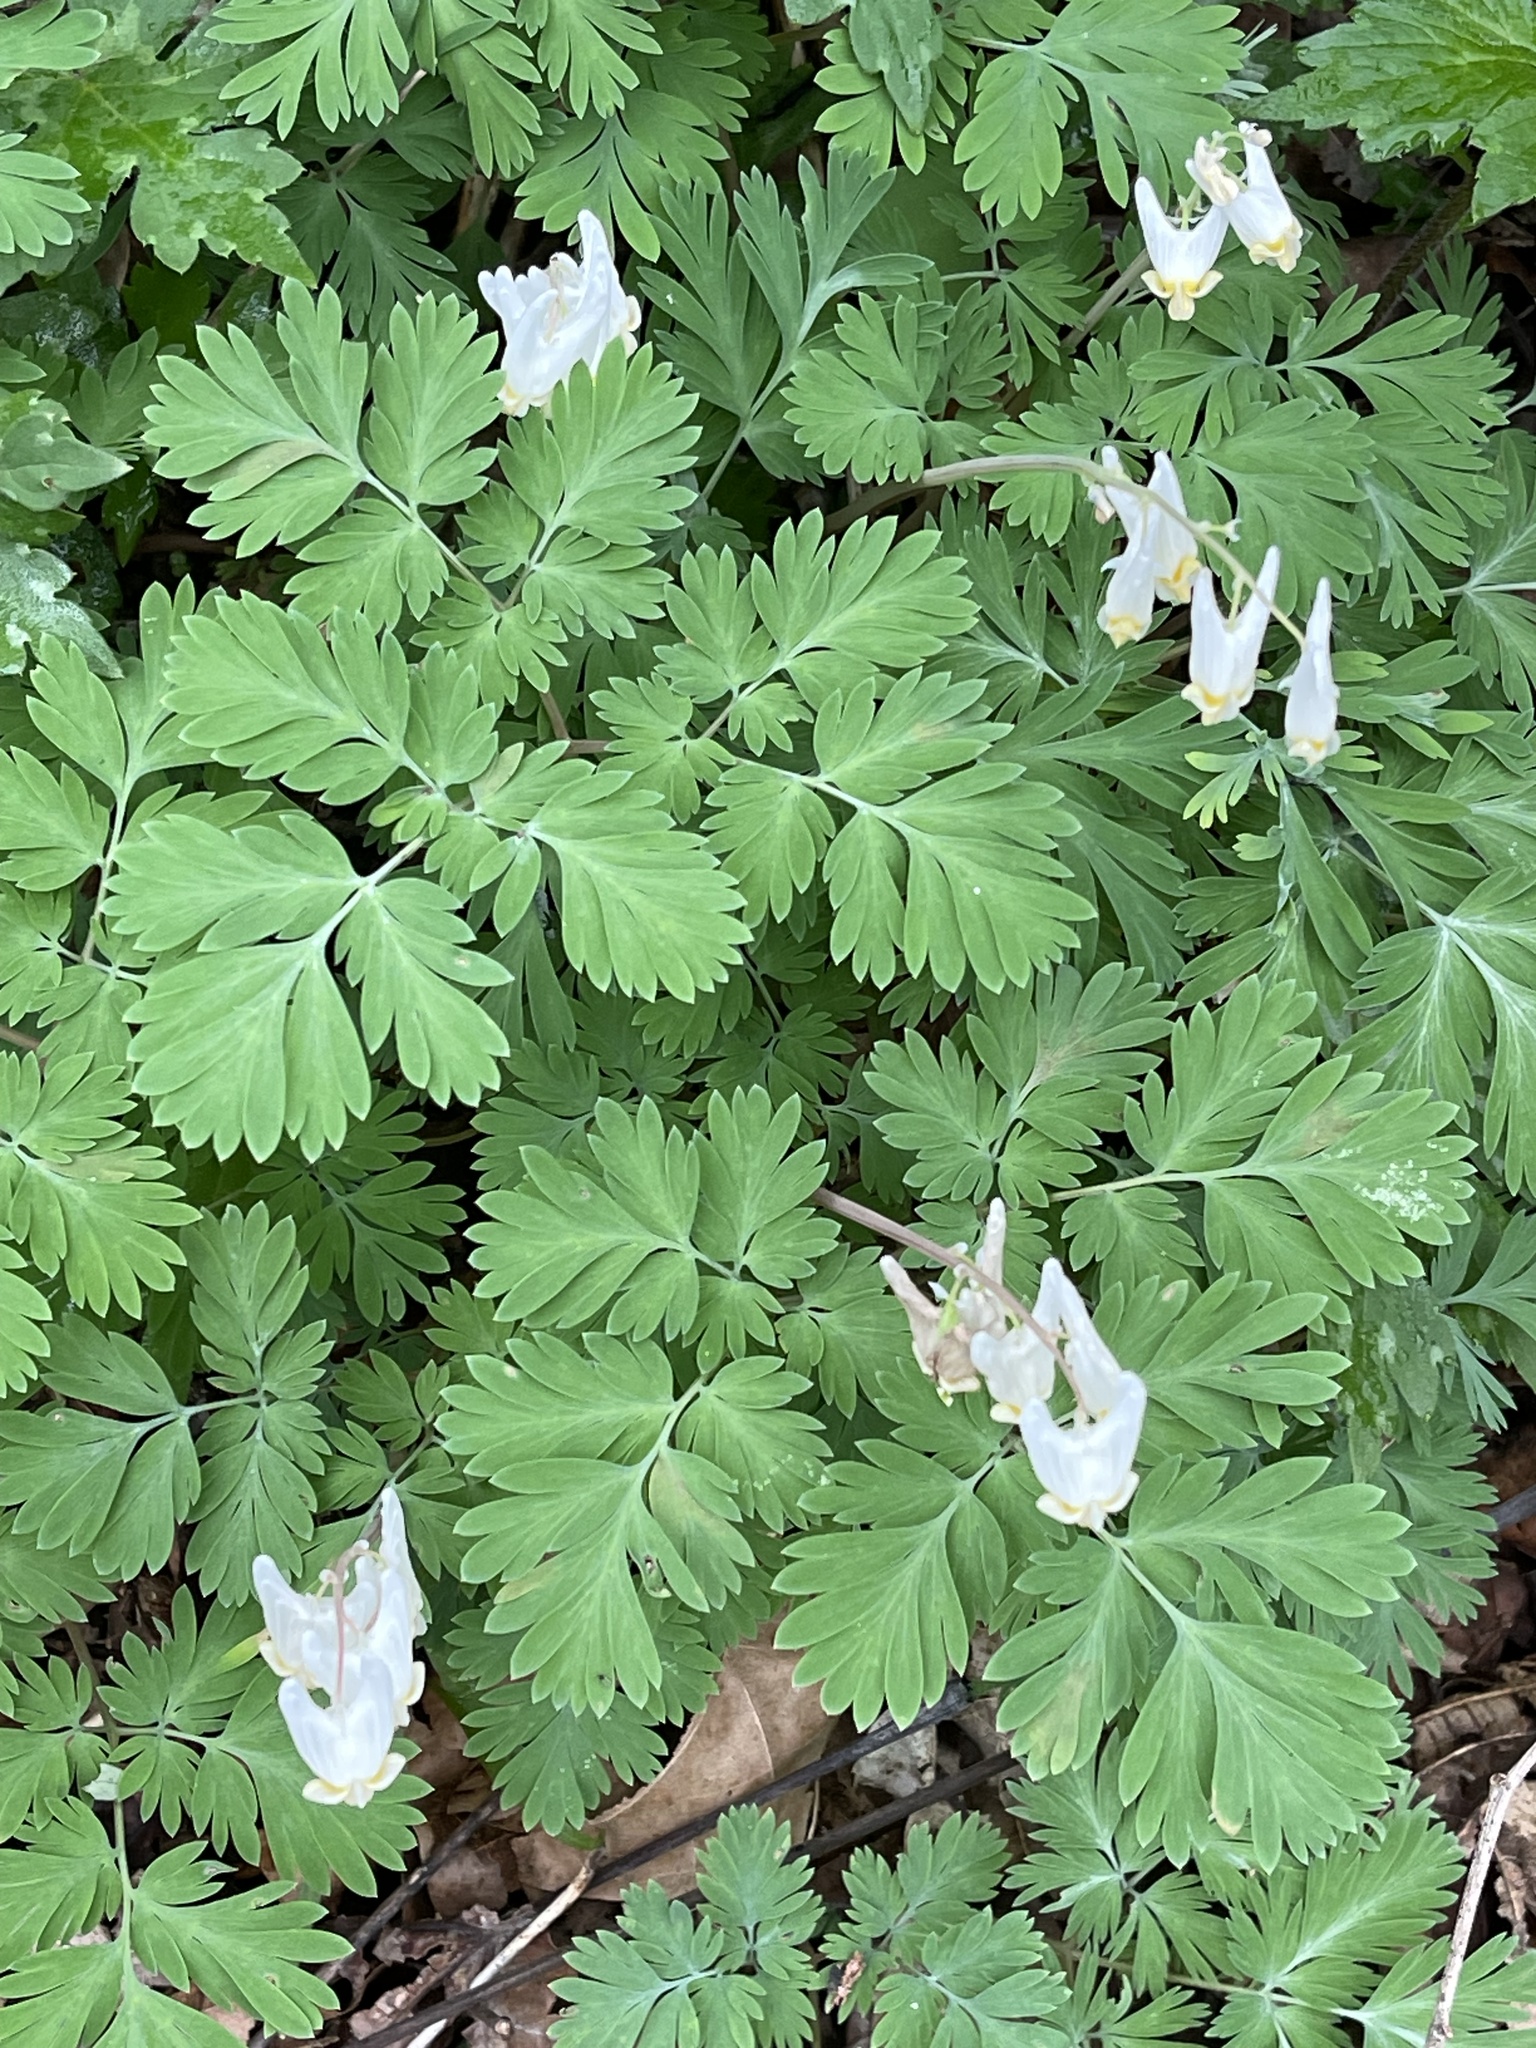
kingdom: Plantae
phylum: Tracheophyta
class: Magnoliopsida
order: Ranunculales
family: Papaveraceae
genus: Dicentra
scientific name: Dicentra cucullaria
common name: Dutchman's breeches
